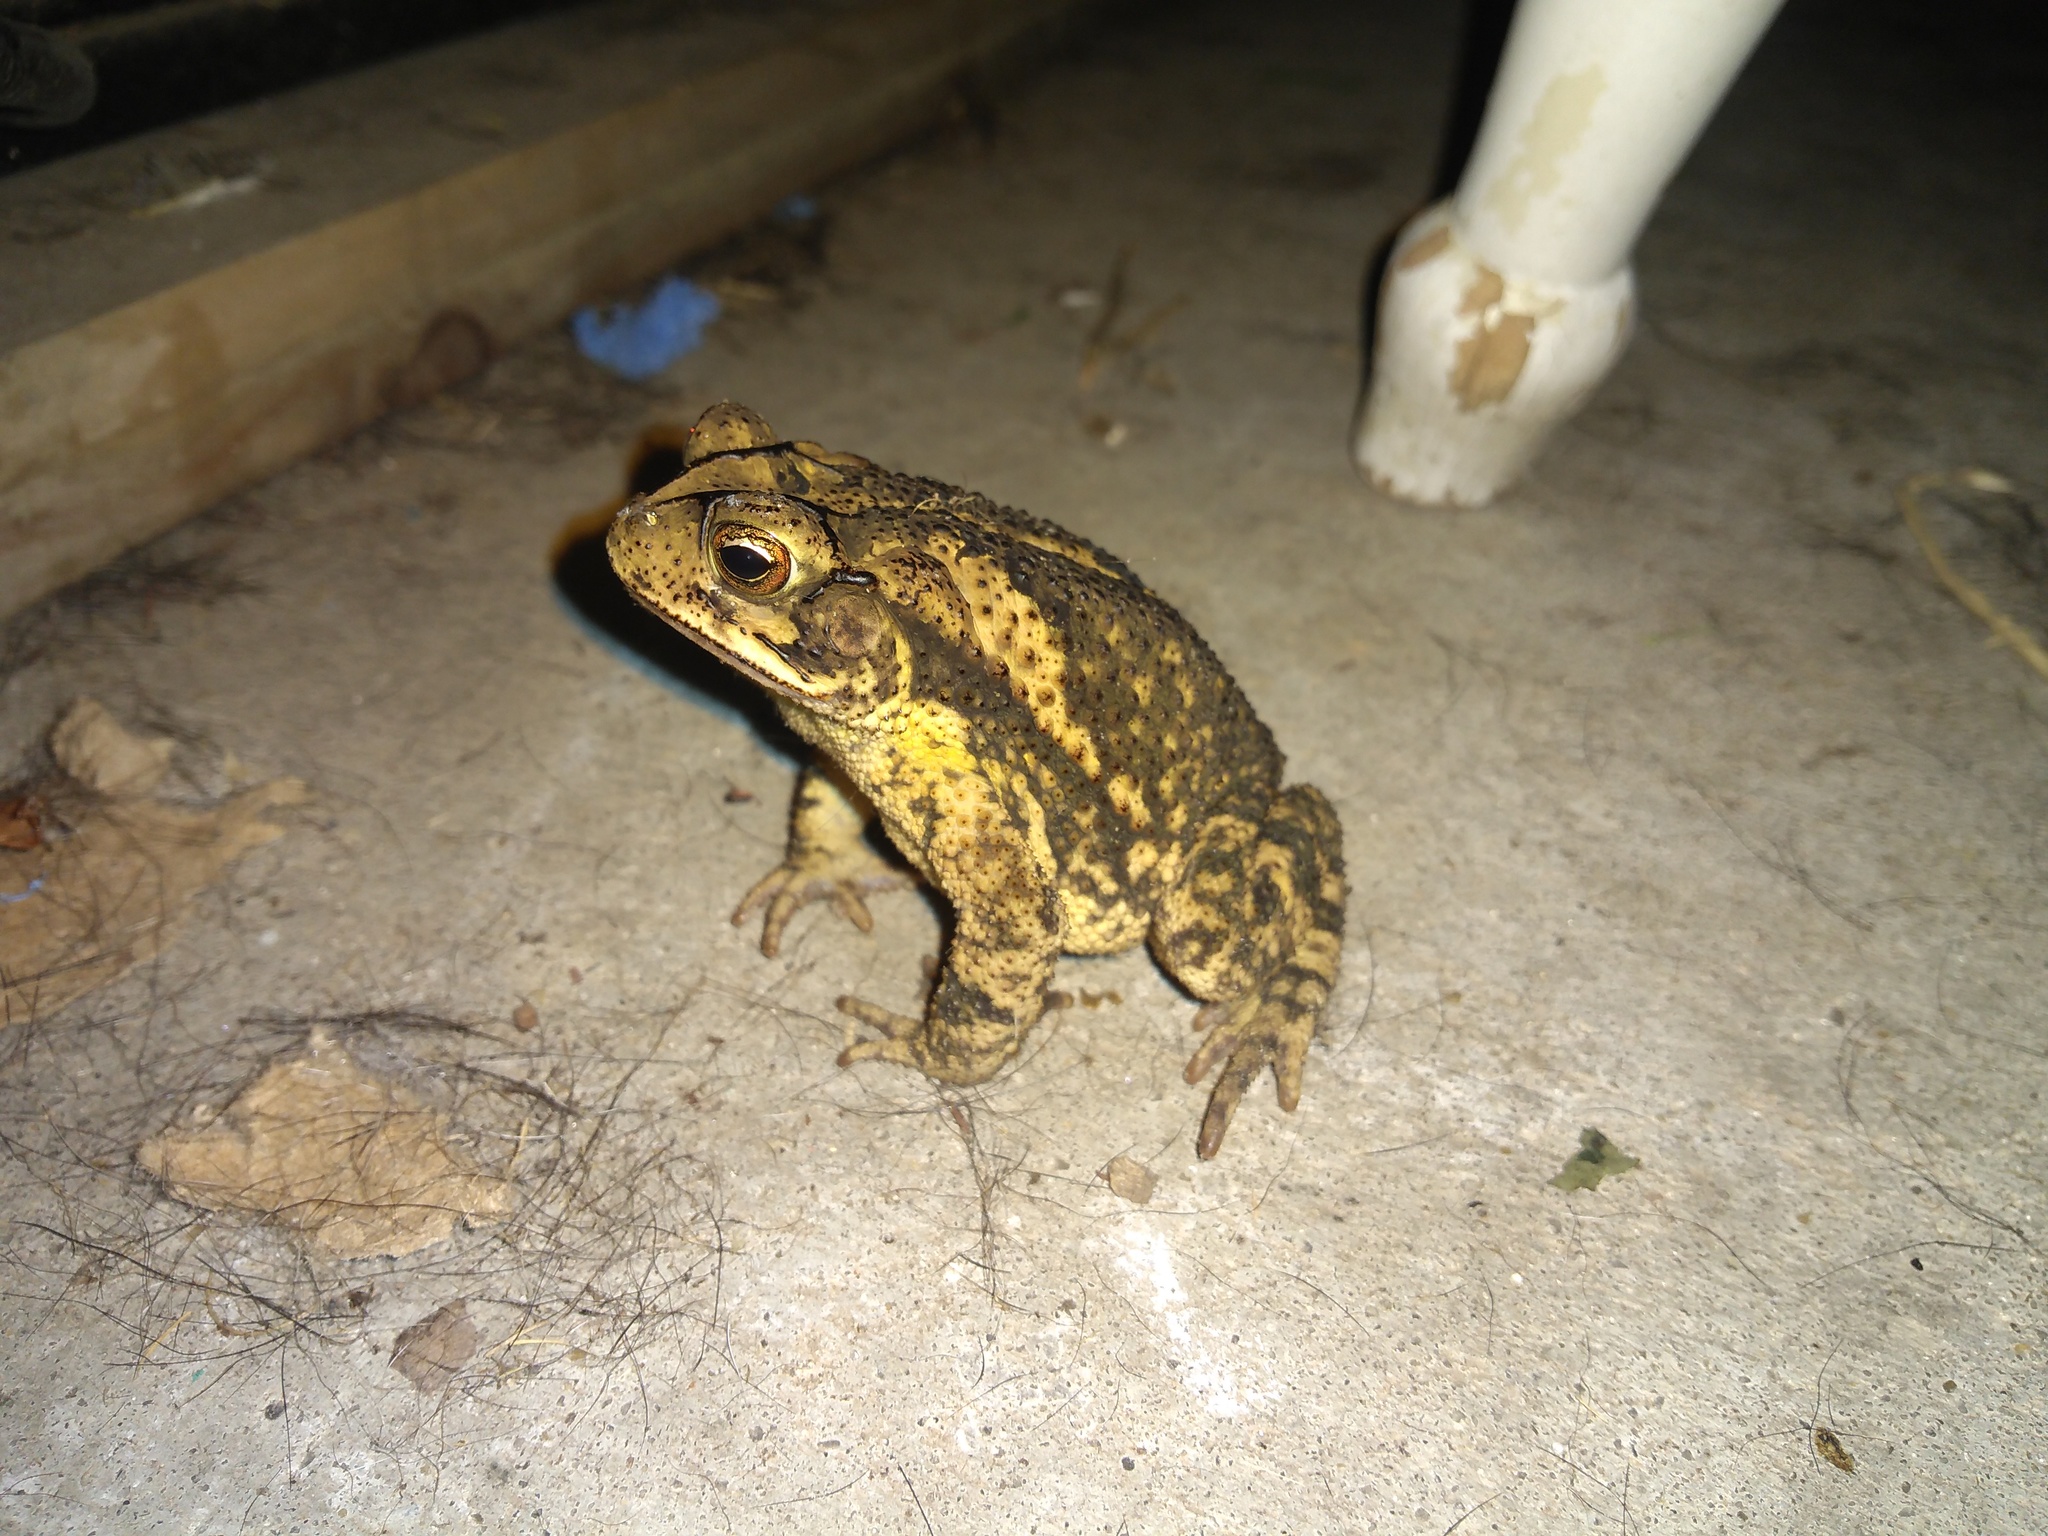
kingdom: Animalia
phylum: Chordata
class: Amphibia
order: Anura
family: Bufonidae
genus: Incilius
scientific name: Incilius nebulifer
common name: Gulf coast toad
